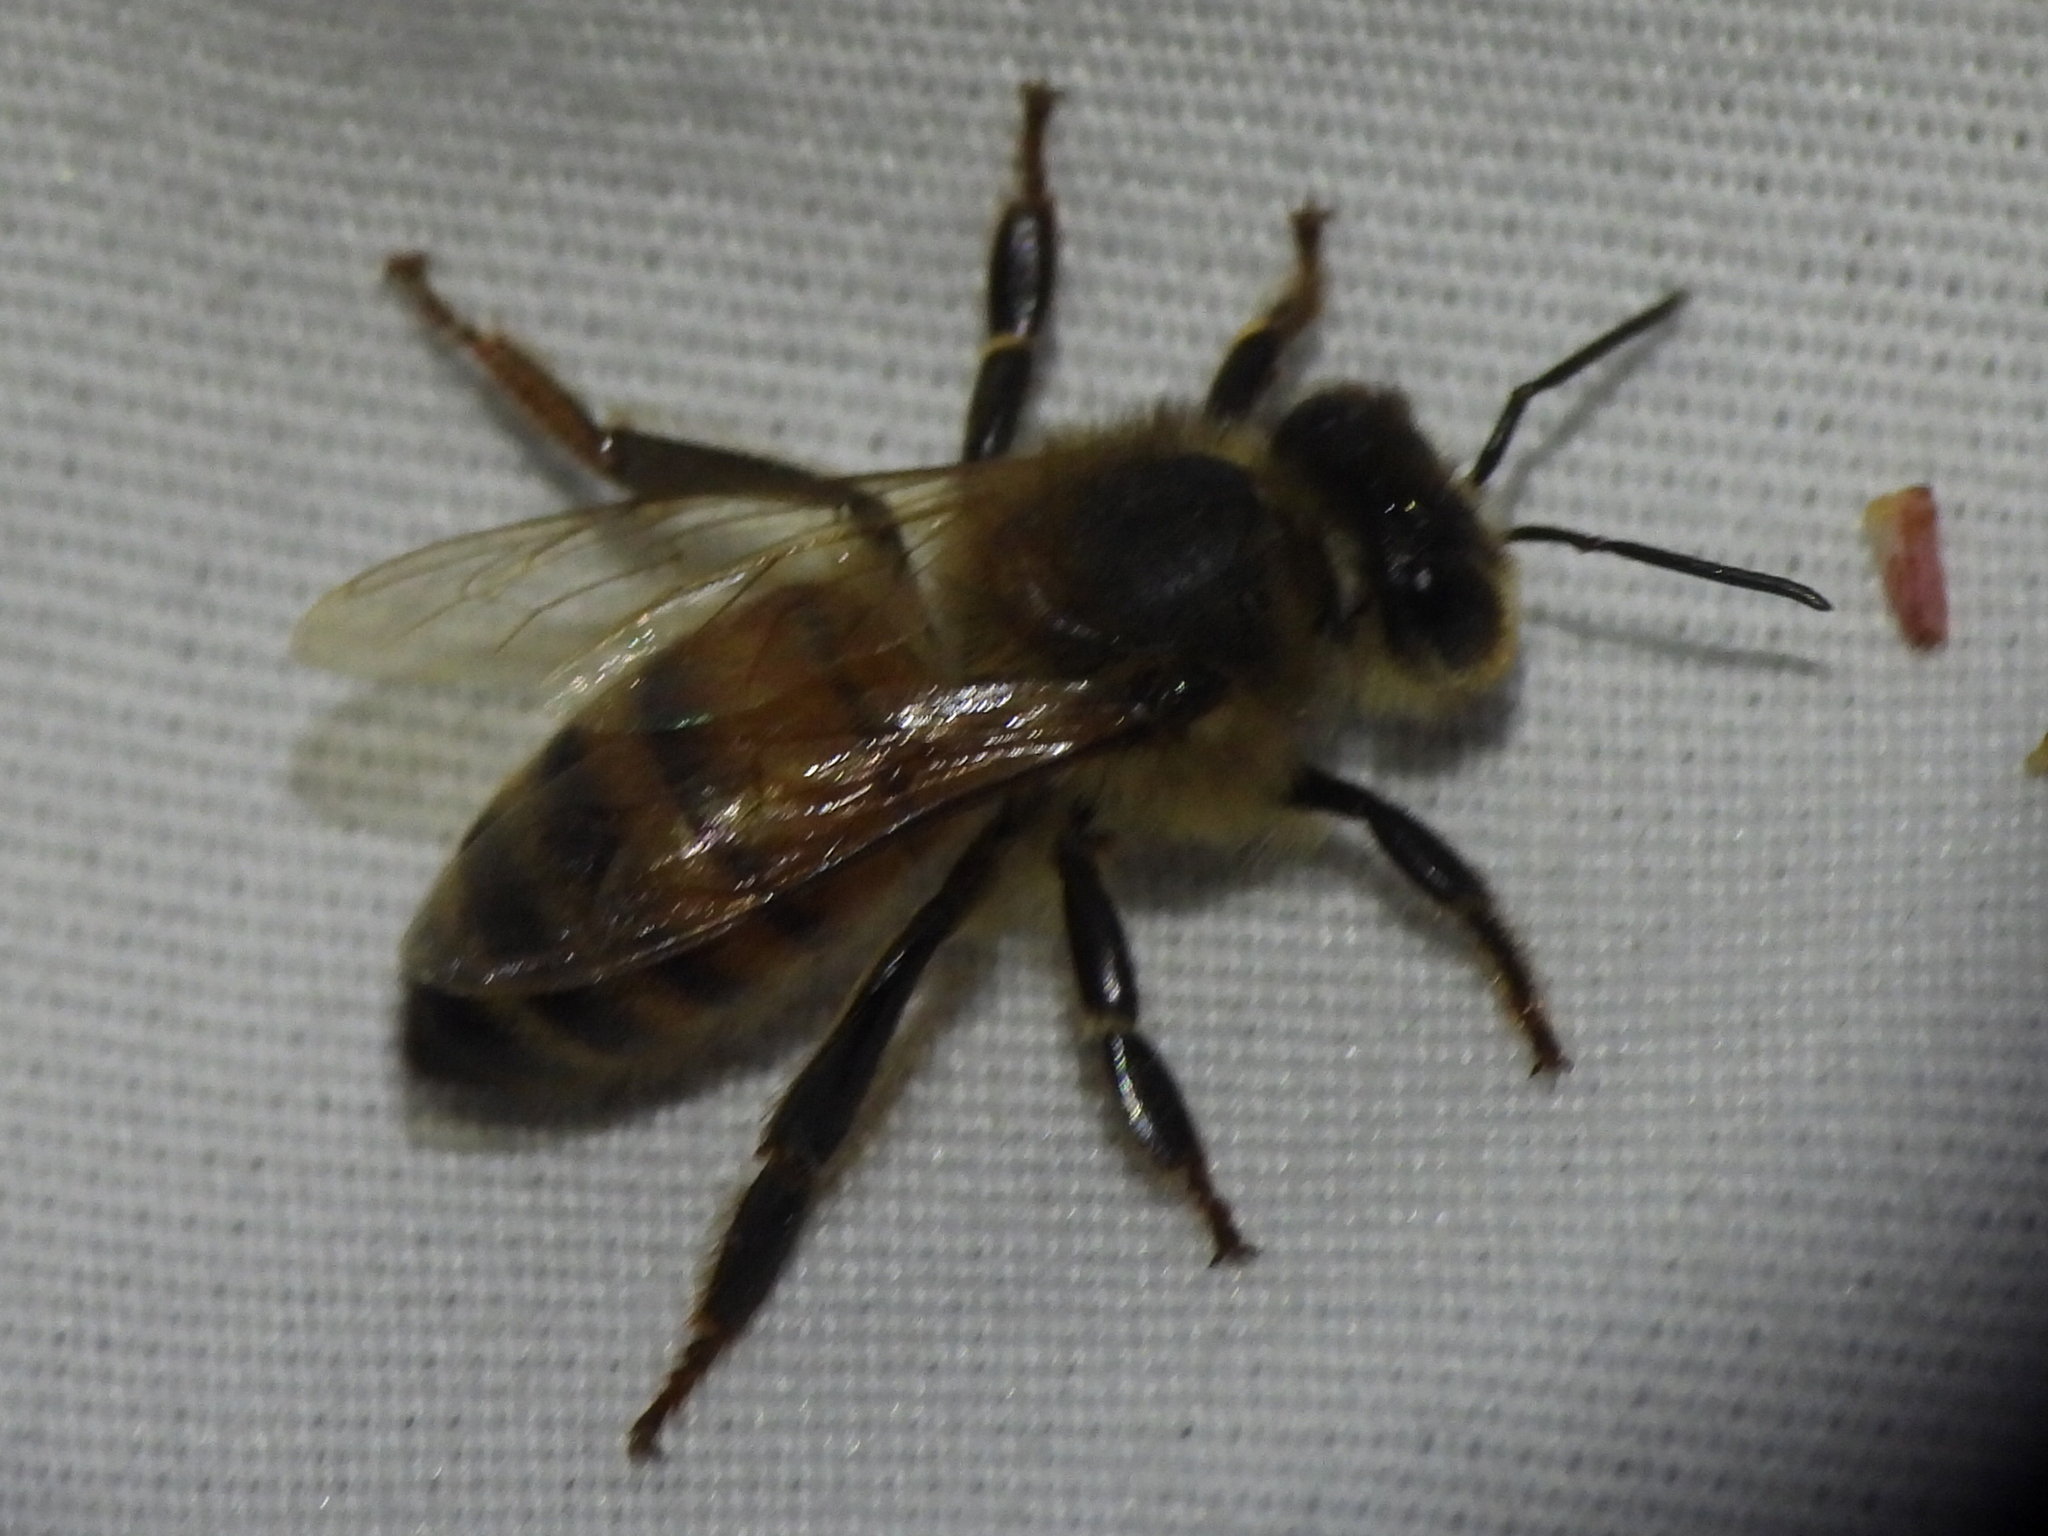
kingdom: Animalia
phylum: Arthropoda
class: Insecta
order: Hymenoptera
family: Apidae
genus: Apis
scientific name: Apis mellifera
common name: Honey bee
